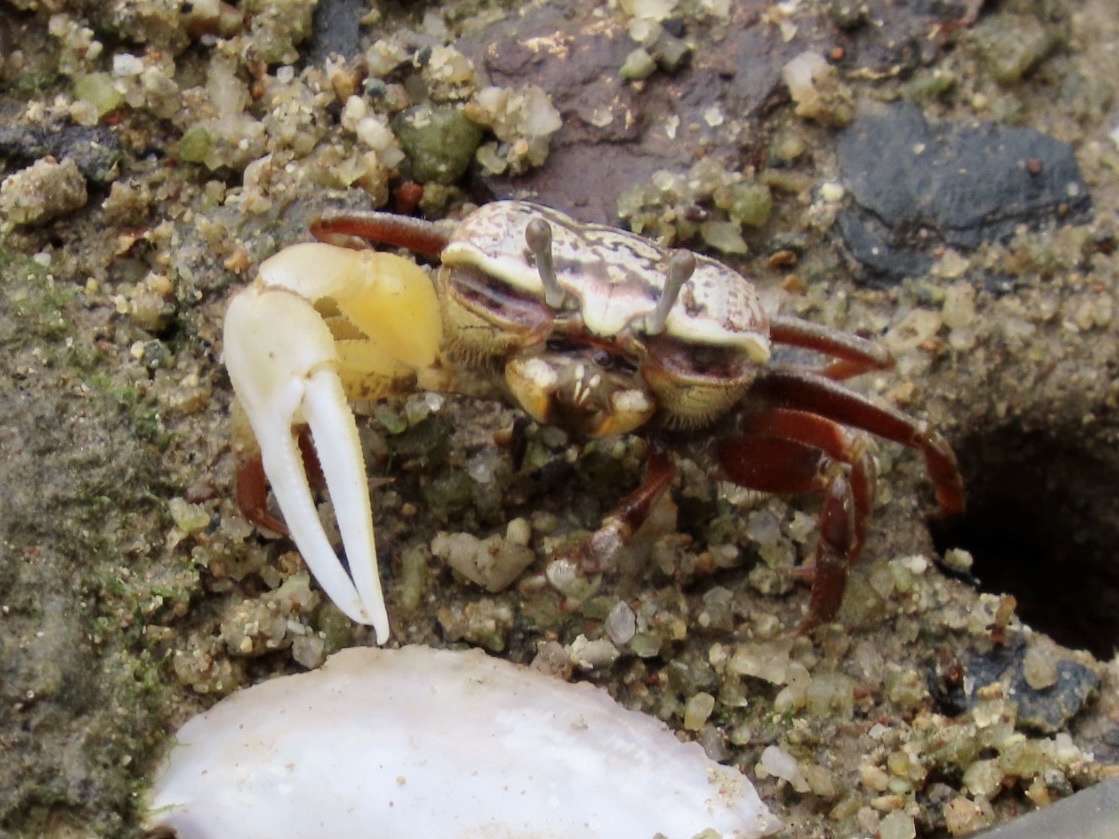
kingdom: Animalia
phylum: Arthropoda
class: Malacostraca
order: Decapoda
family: Ocypodidae
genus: Austruca
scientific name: Austruca lactea
